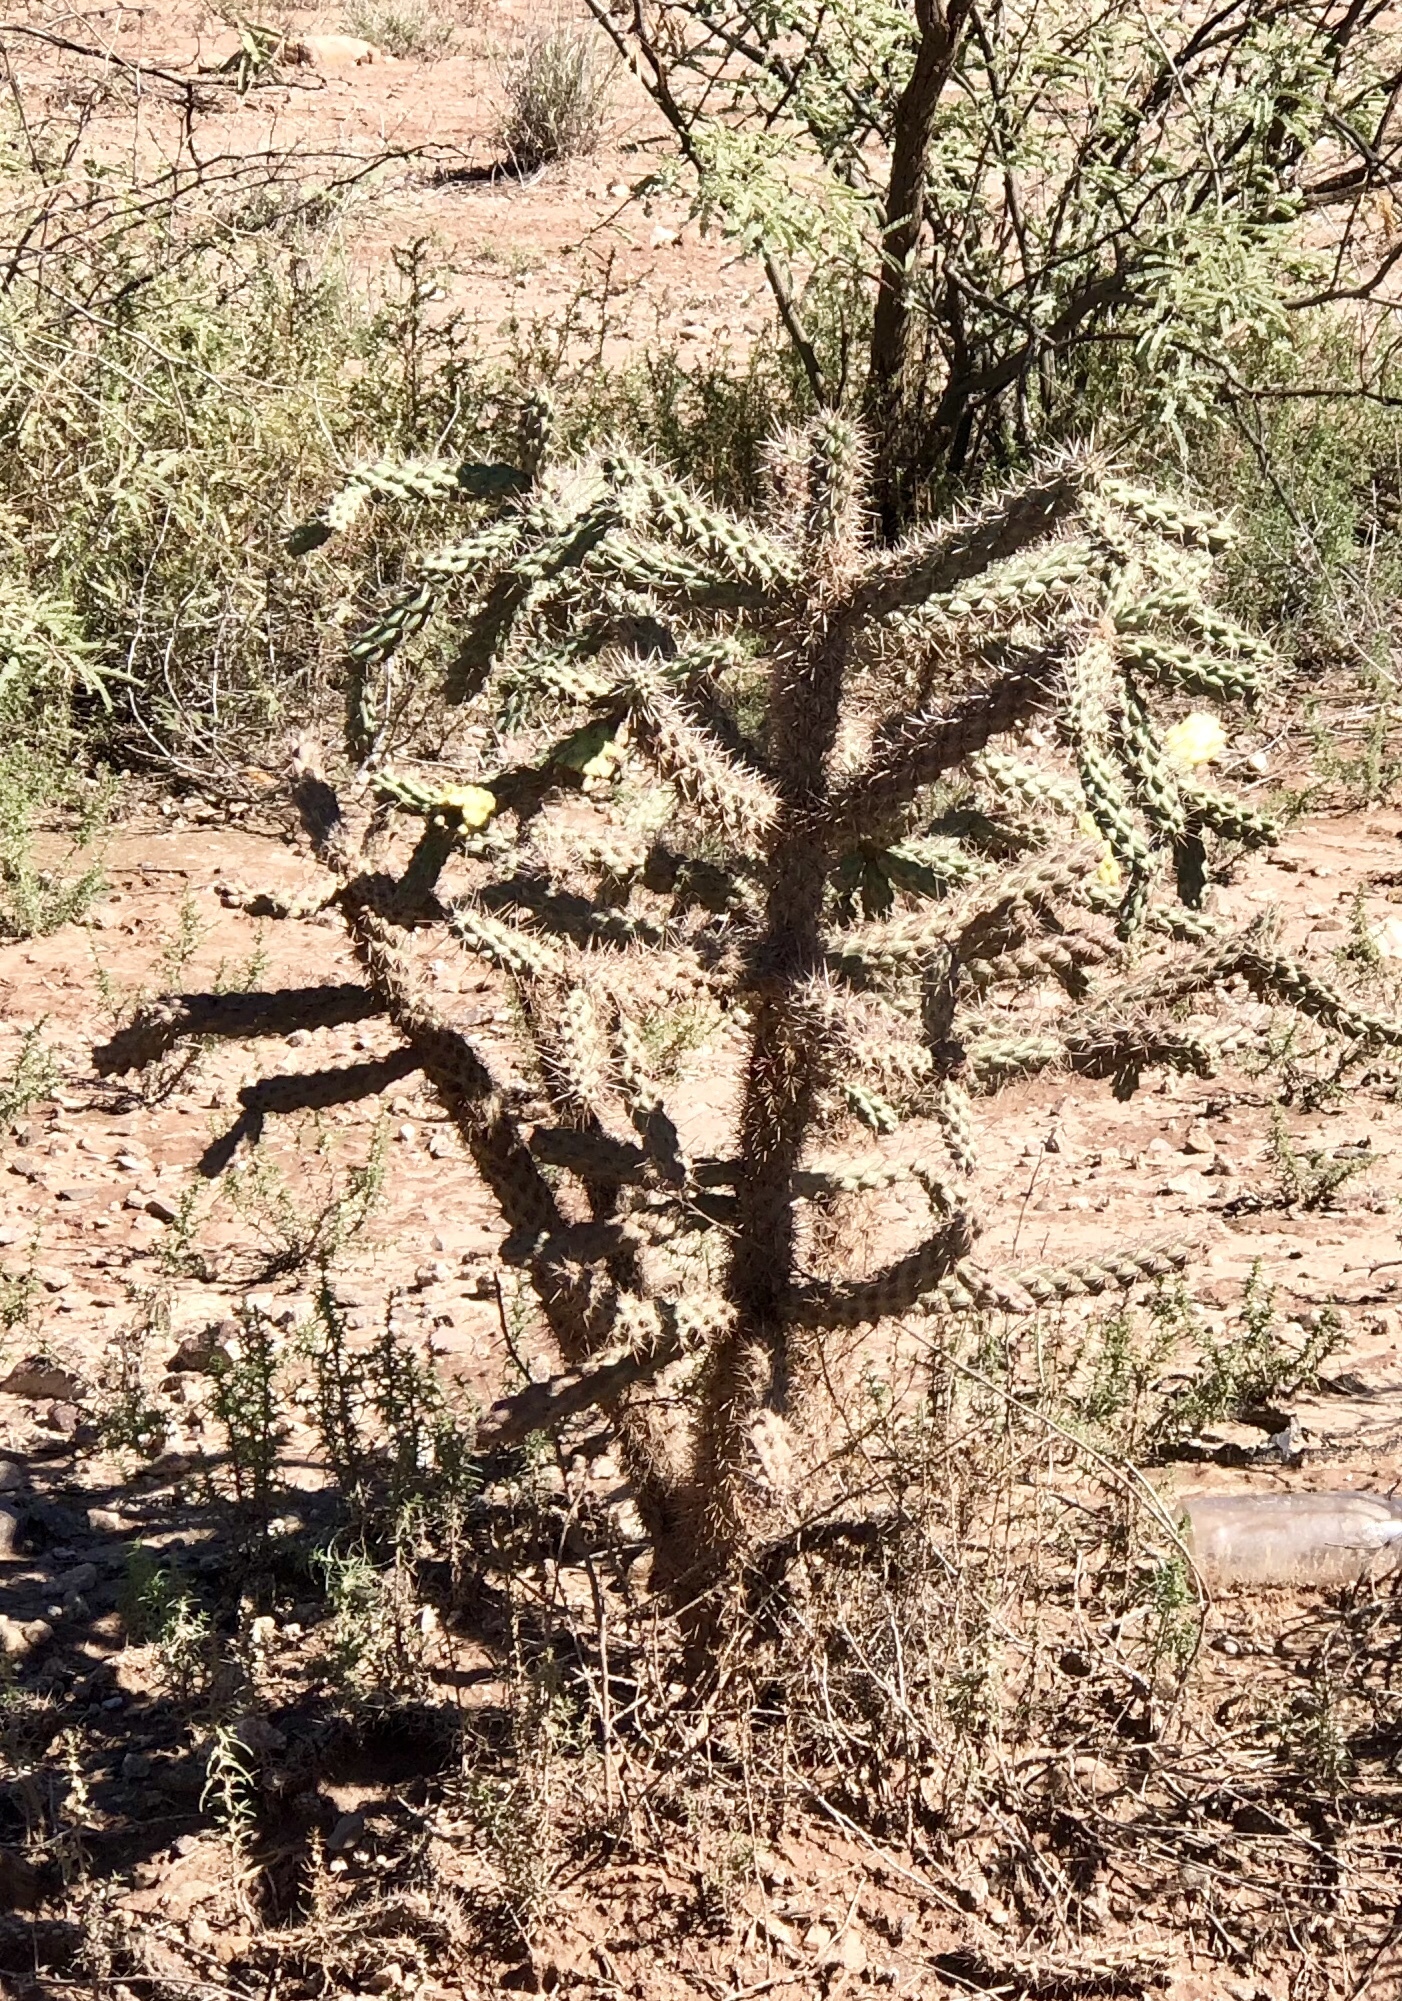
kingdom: Plantae
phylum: Tracheophyta
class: Magnoliopsida
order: Caryophyllales
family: Cactaceae
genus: Cylindropuntia
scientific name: Cylindropuntia imbricata
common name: Candelabrum cactus
